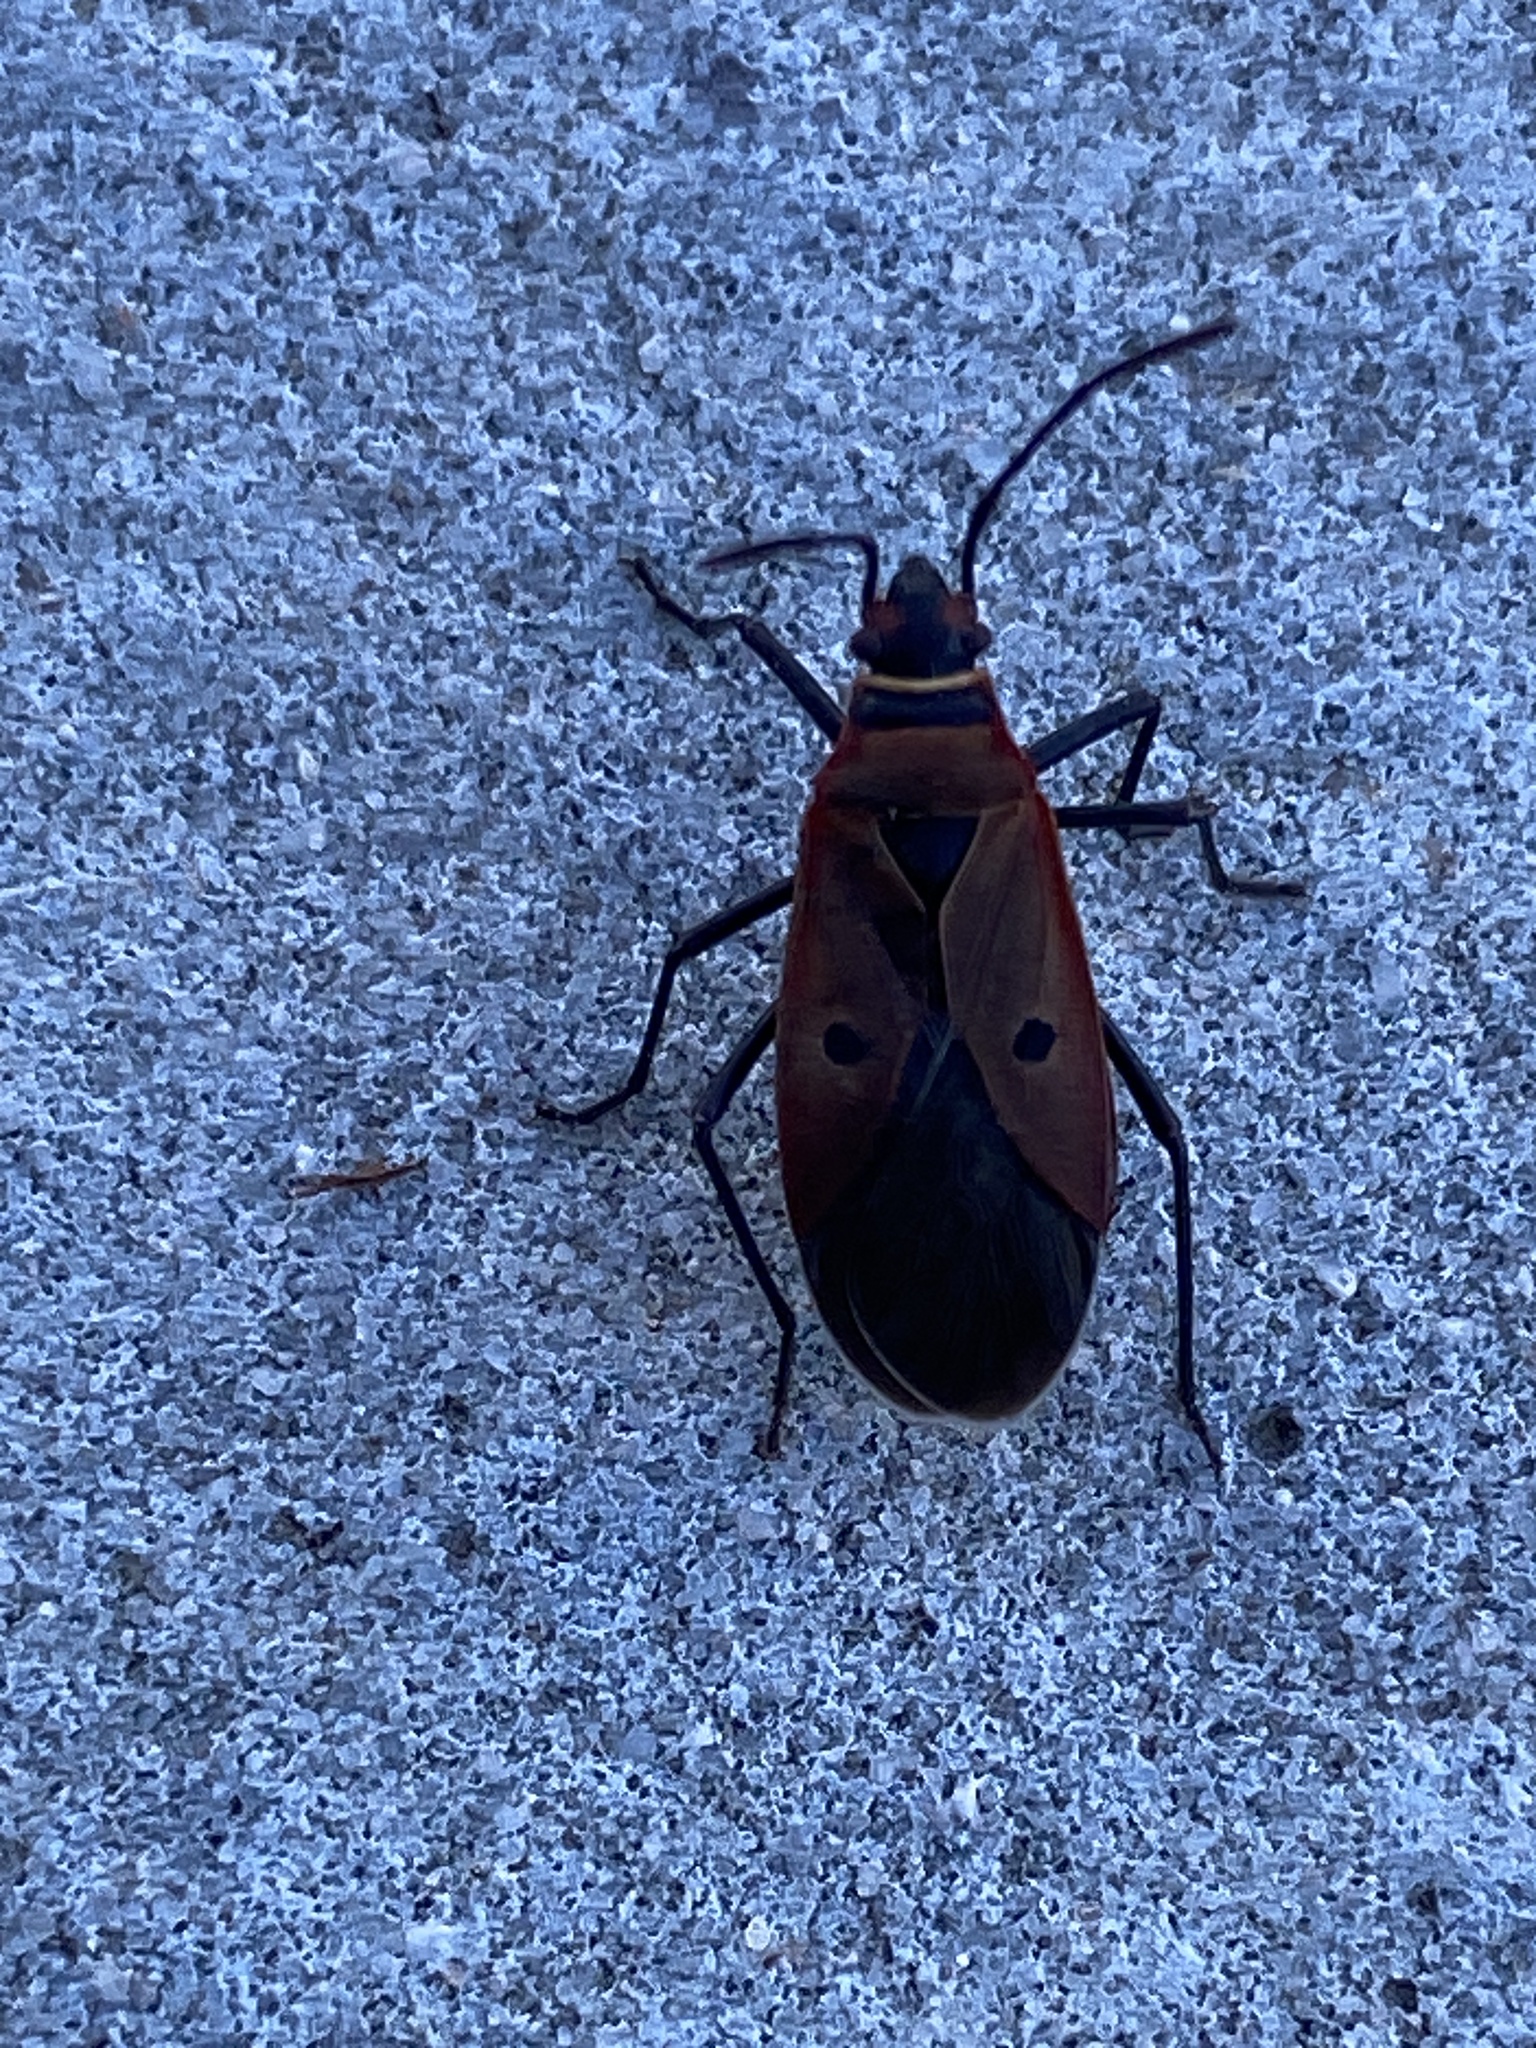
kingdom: Animalia
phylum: Arthropoda
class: Insecta
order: Hemiptera
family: Pyrrhocoridae
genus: Dysdercus
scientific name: Dysdercus sidae
